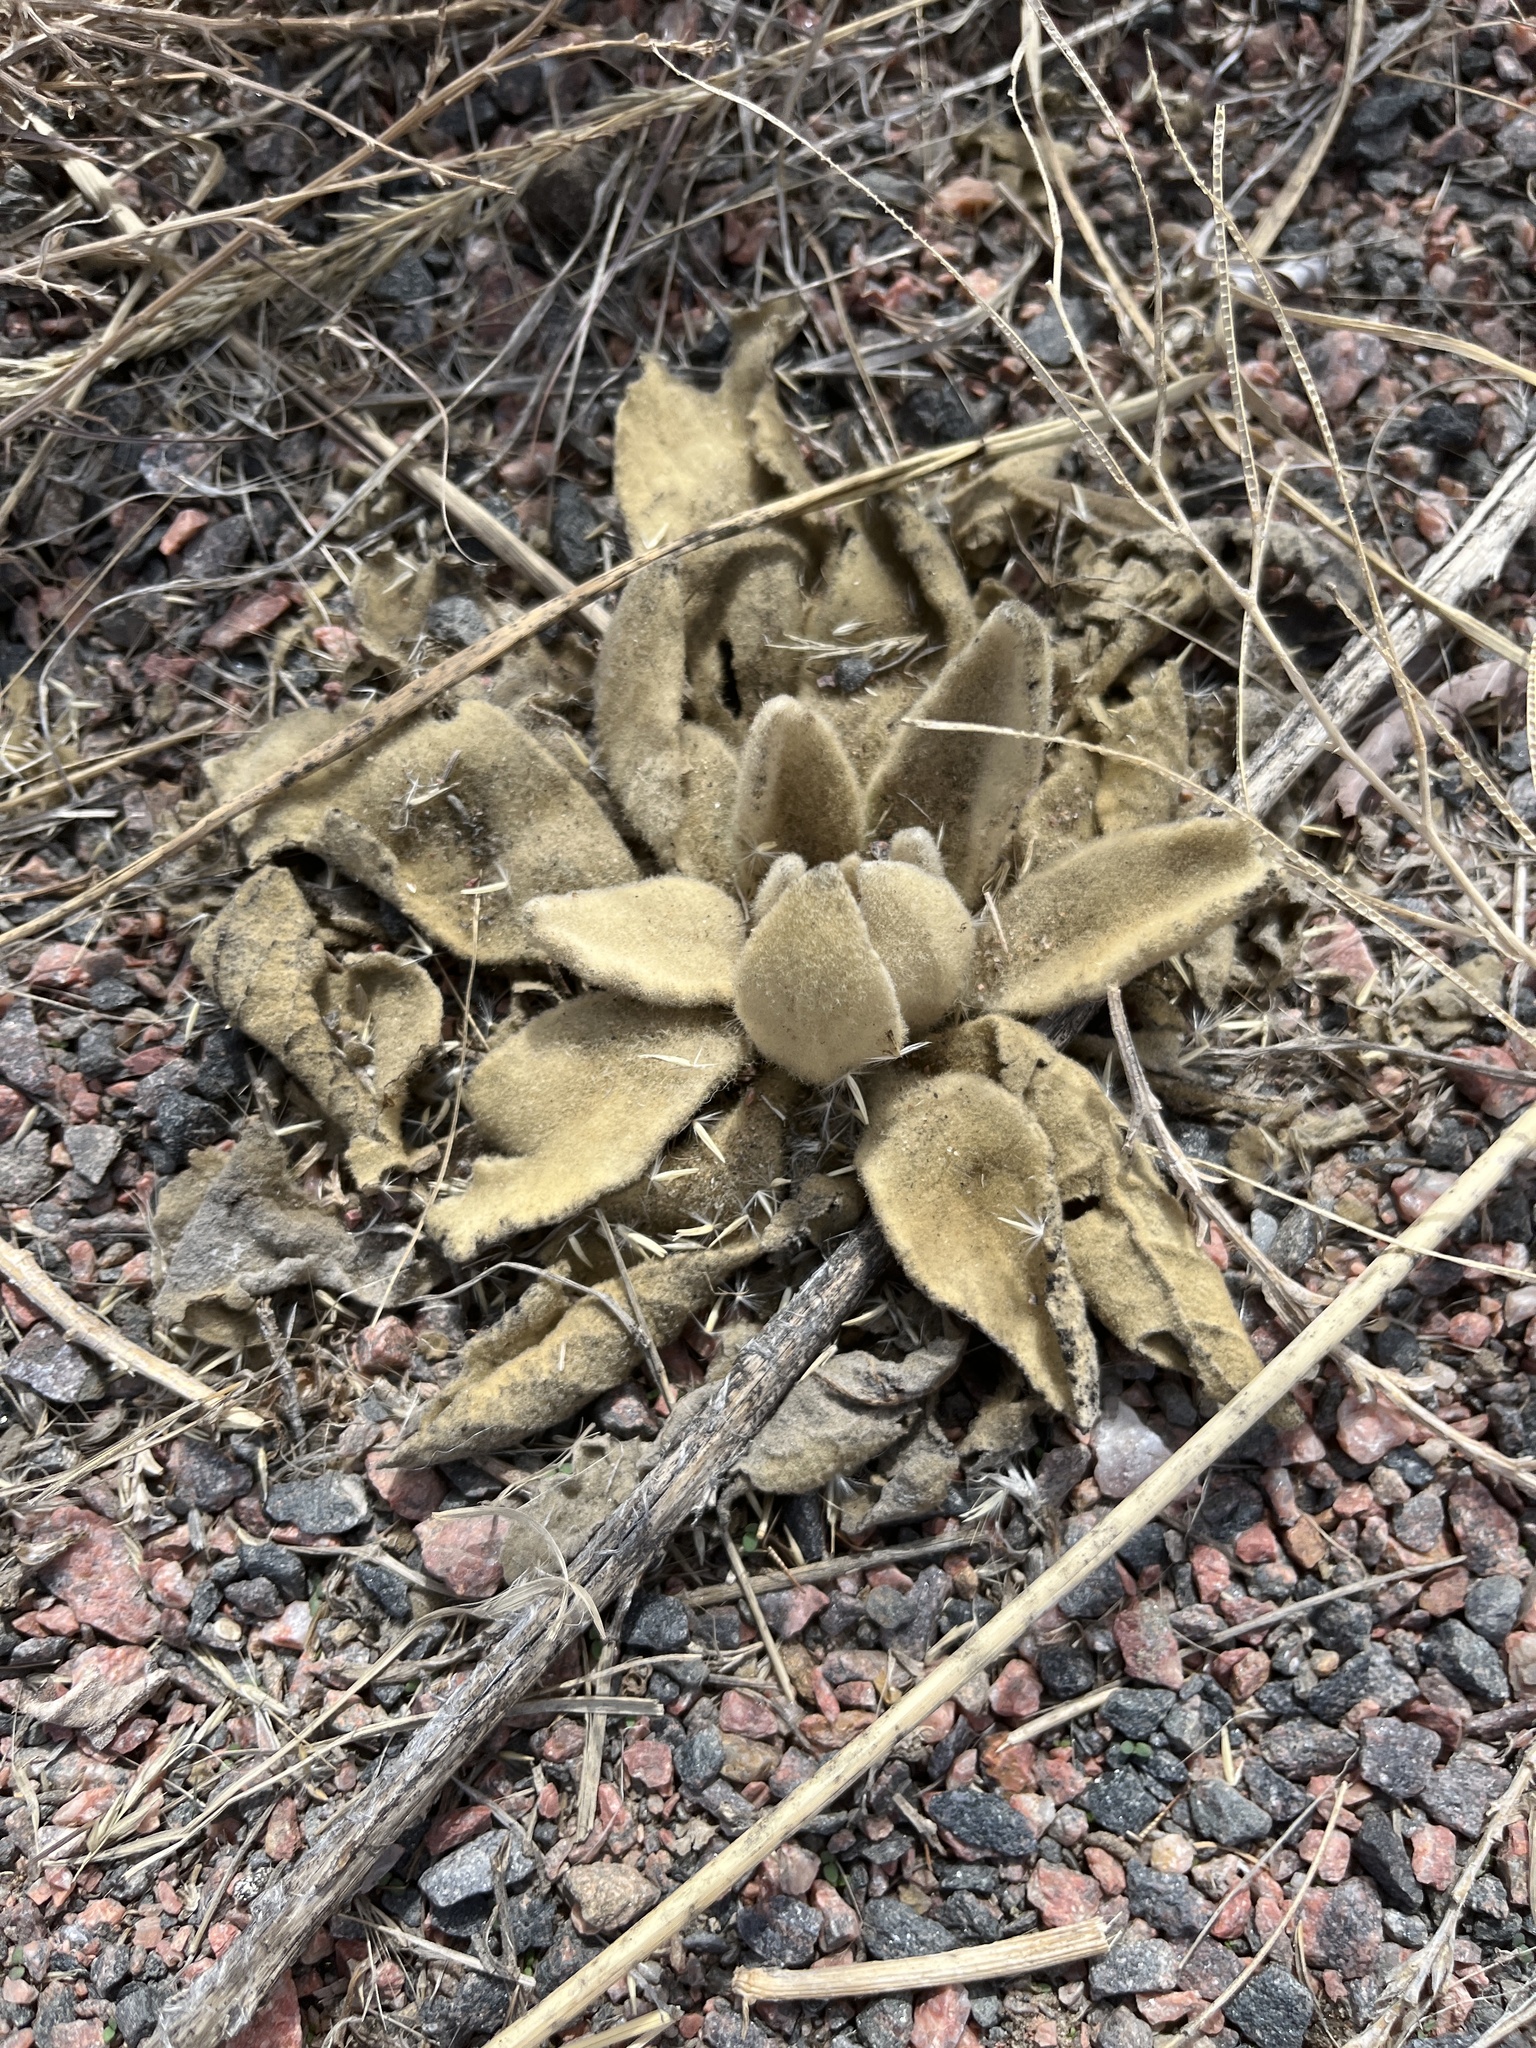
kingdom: Plantae
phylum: Tracheophyta
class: Magnoliopsida
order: Lamiales
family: Scrophulariaceae
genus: Verbascum
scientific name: Verbascum thapsus
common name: Common mullein
